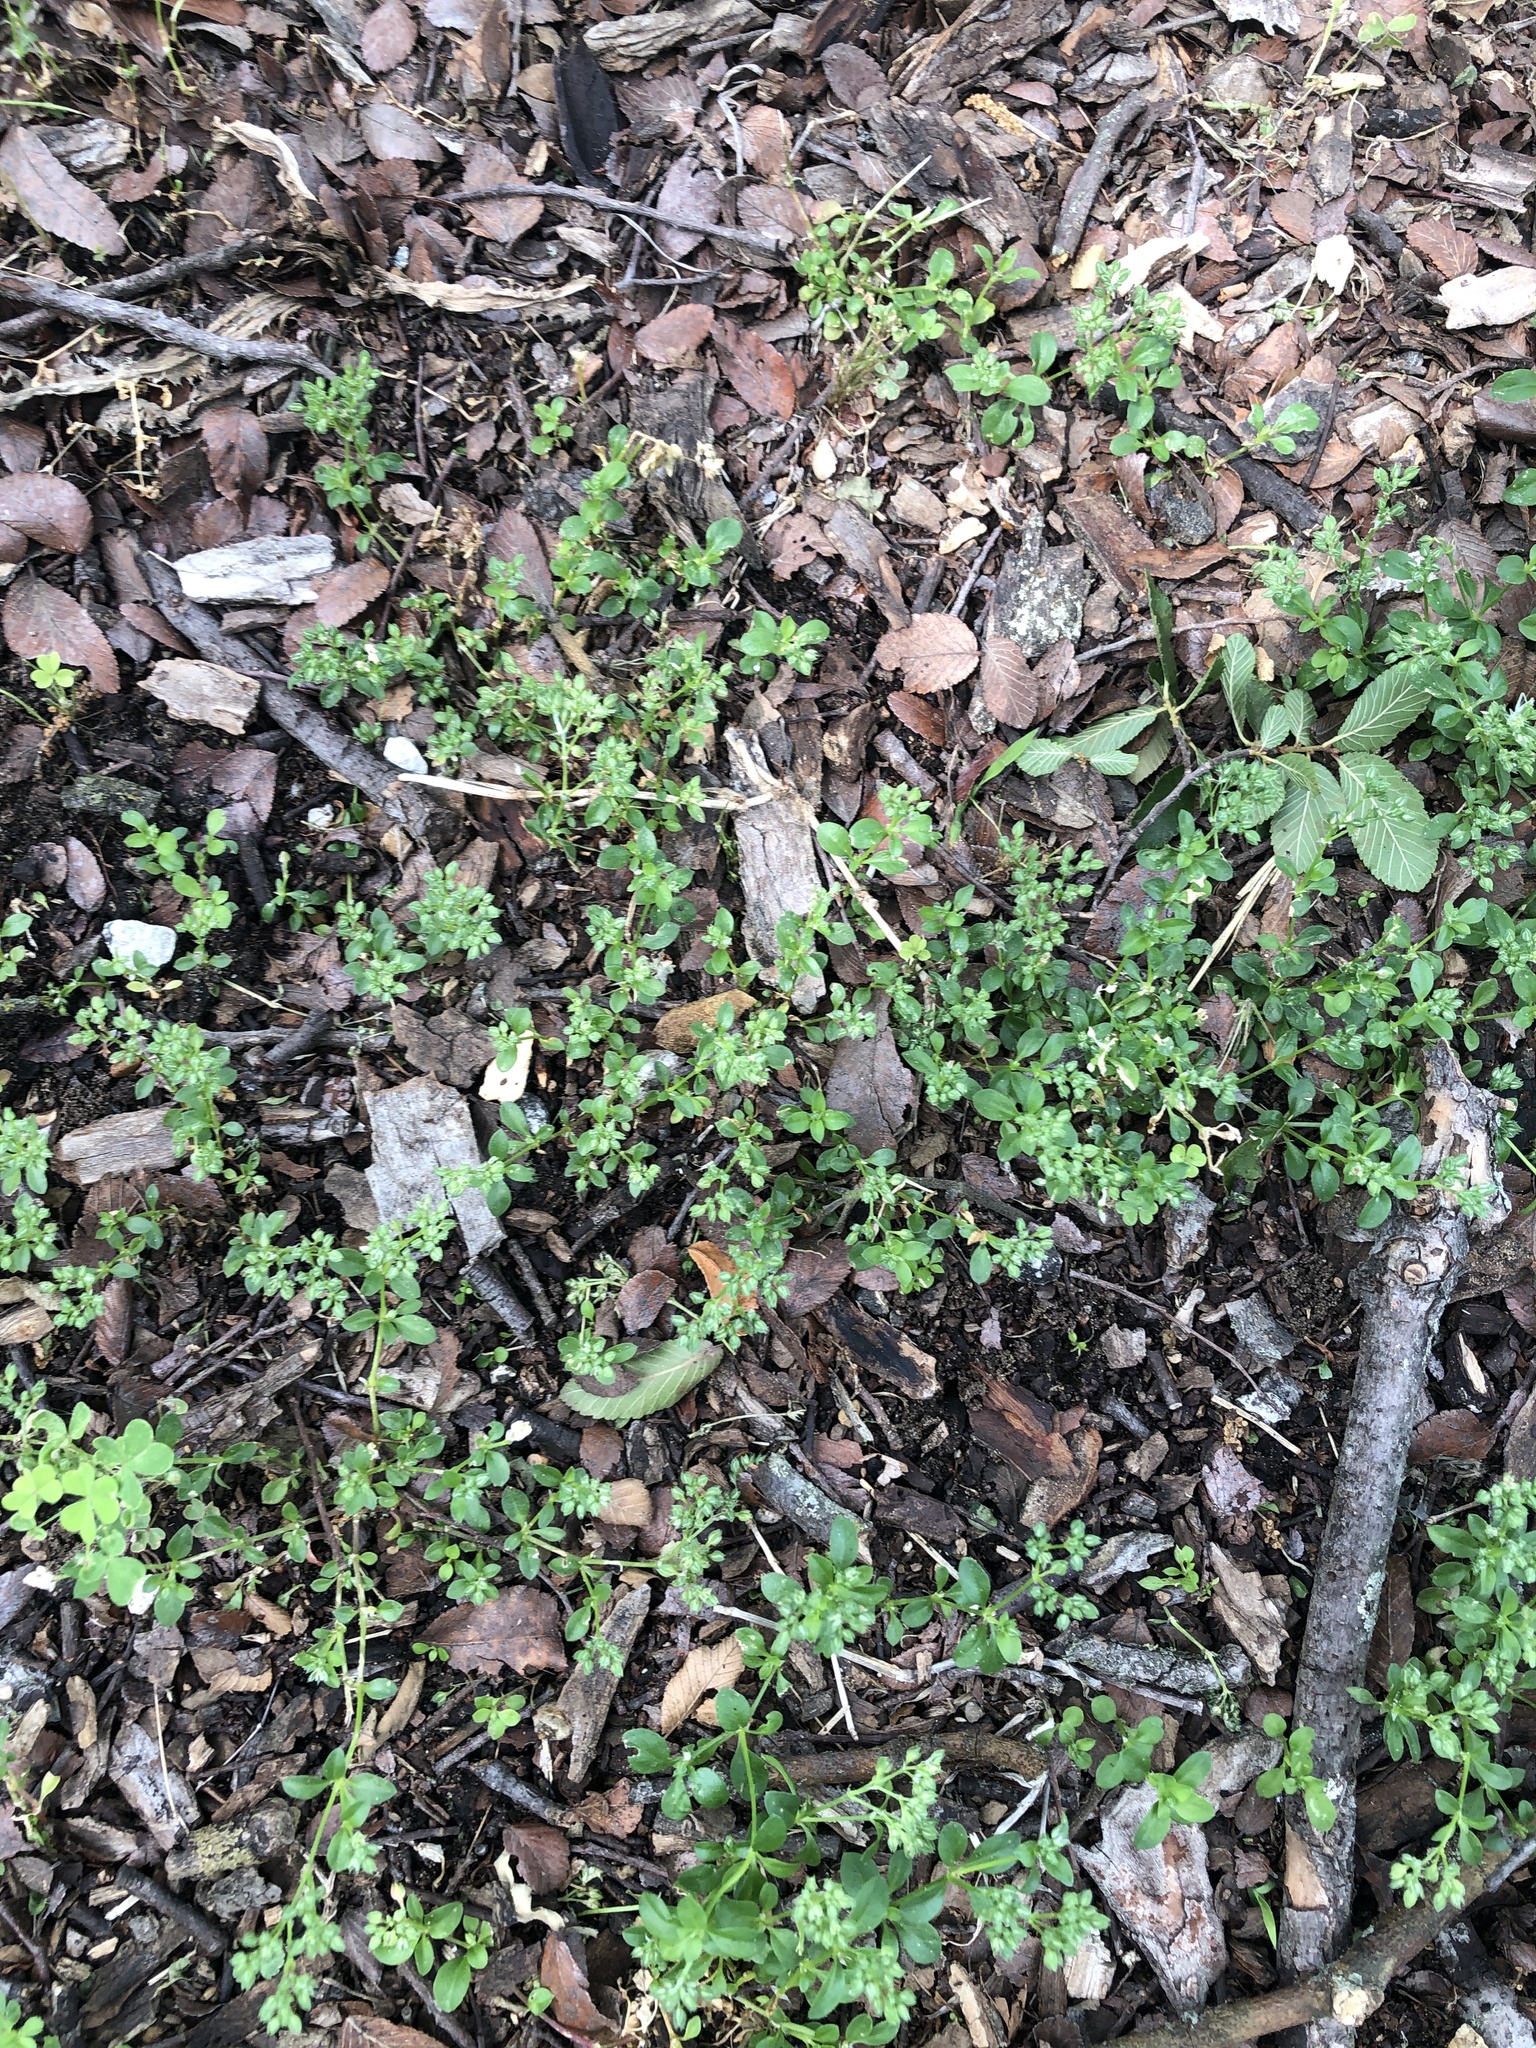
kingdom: Plantae
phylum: Tracheophyta
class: Magnoliopsida
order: Caryophyllales
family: Caryophyllaceae
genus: Polycarpon
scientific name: Polycarpon tetraphyllum
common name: Four-leaved all-seed
